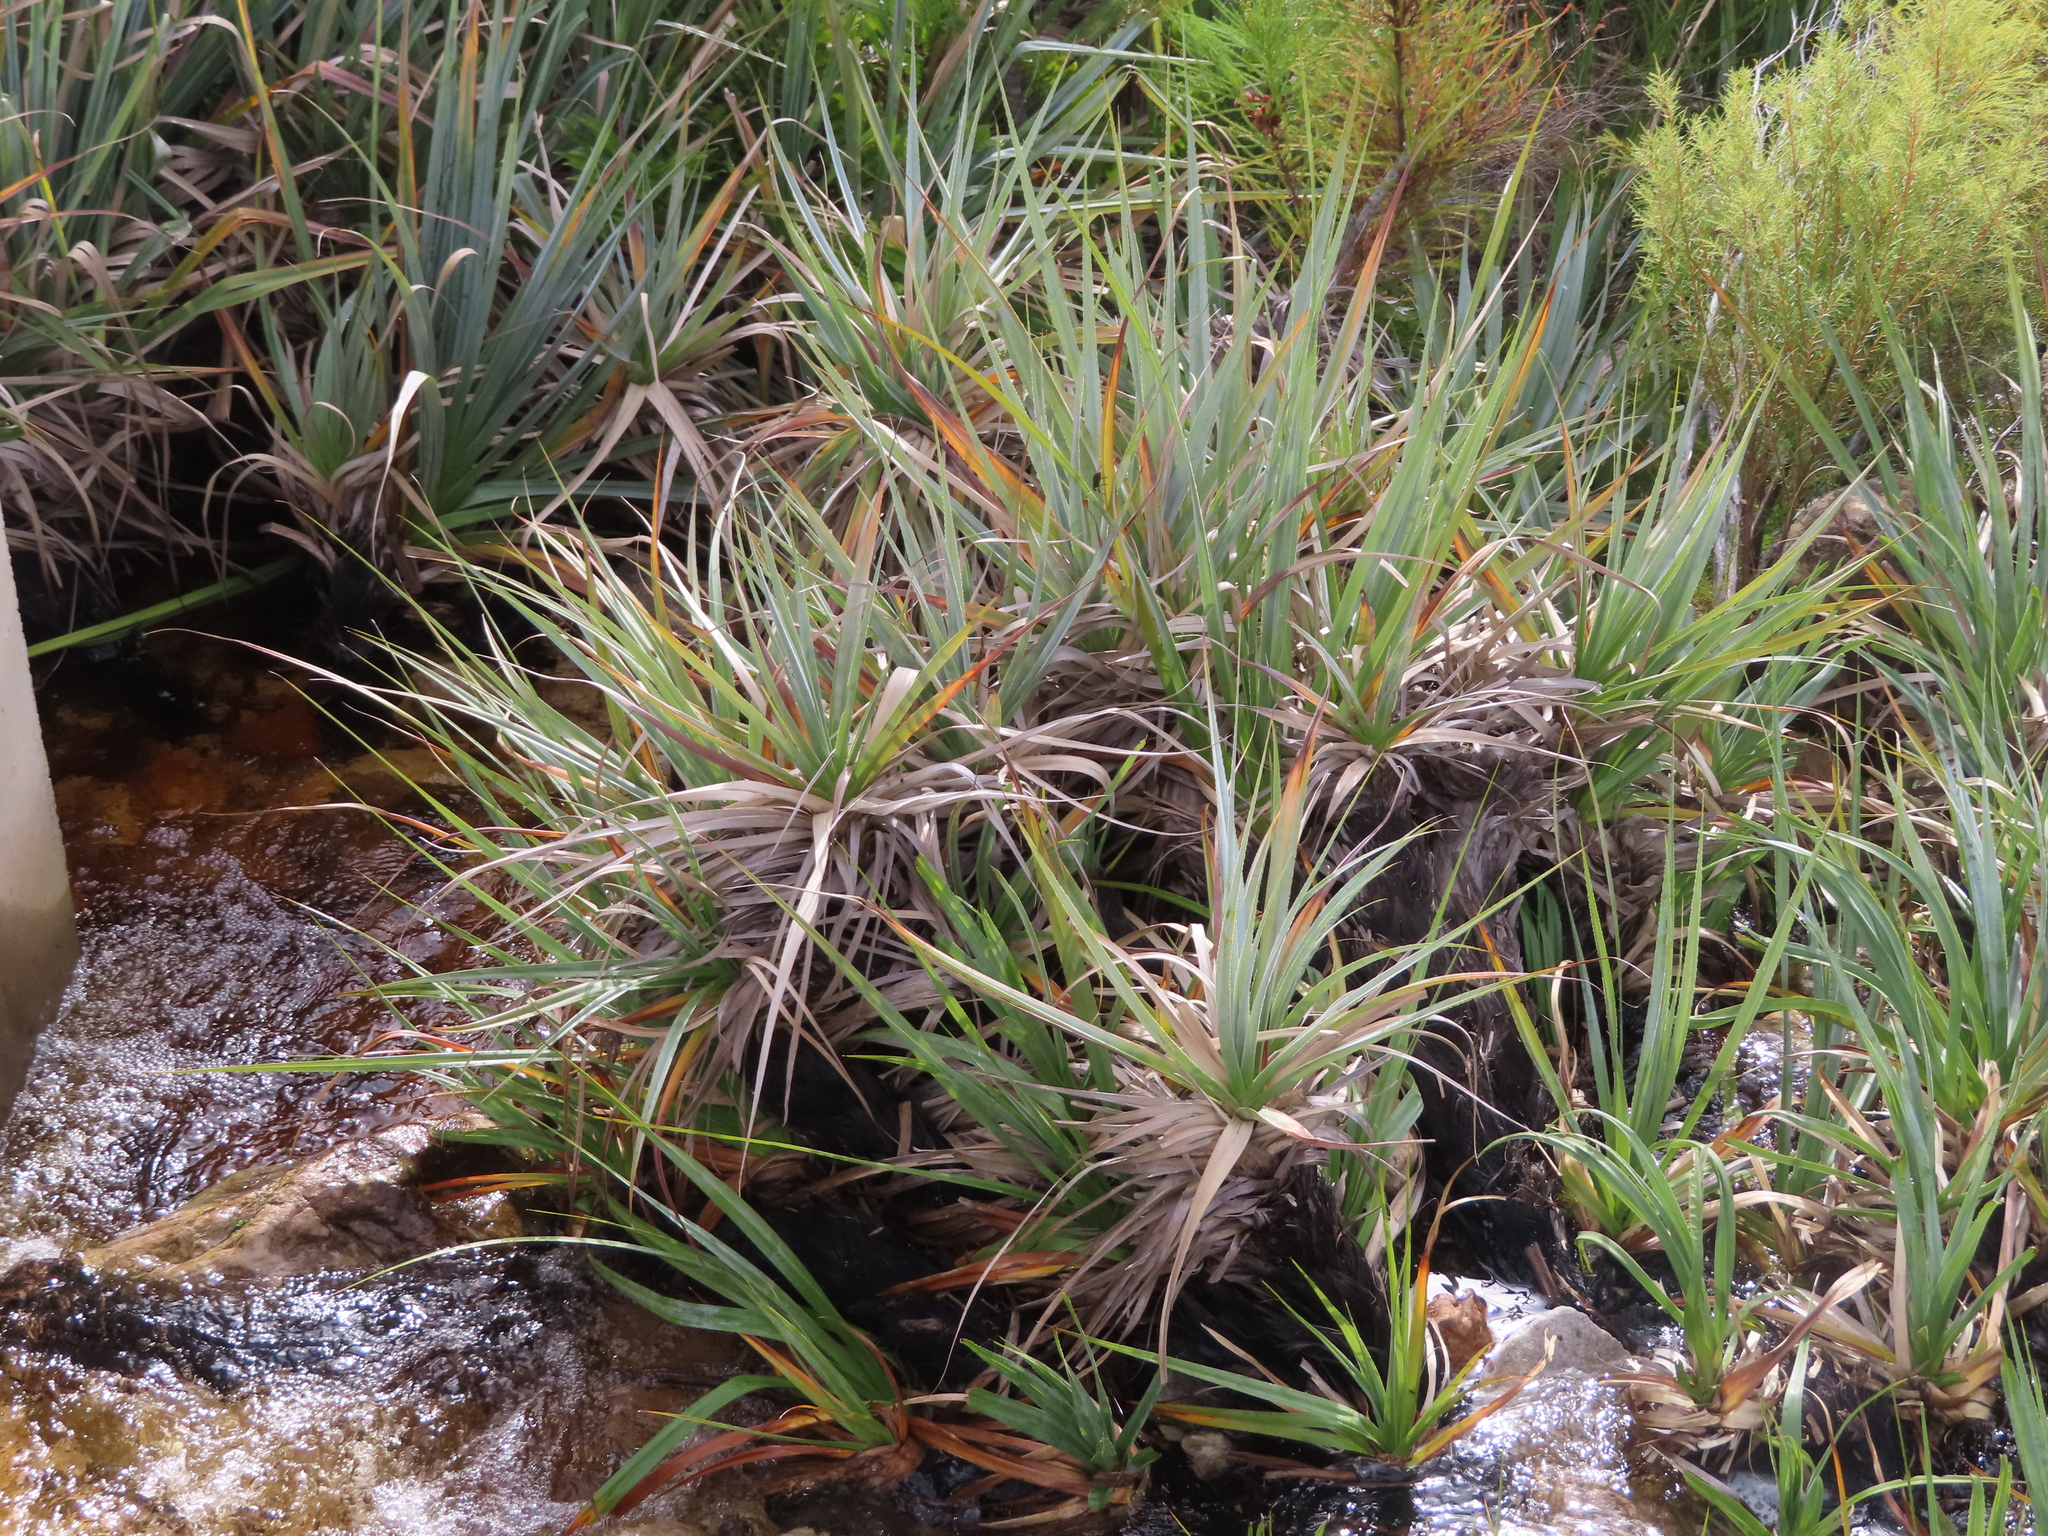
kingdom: Plantae
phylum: Tracheophyta
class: Liliopsida
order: Poales
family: Thurniaceae
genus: Prionium
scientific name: Prionium serratum
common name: Palmiet
